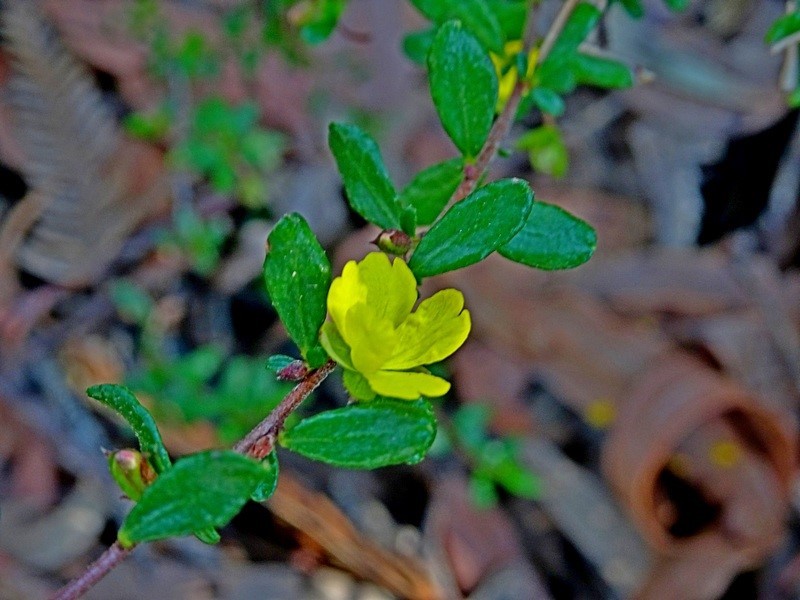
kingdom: Plantae
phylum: Tracheophyta
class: Magnoliopsida
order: Dilleniales
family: Dilleniaceae
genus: Hibbertia
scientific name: Hibbertia empetrifolia
